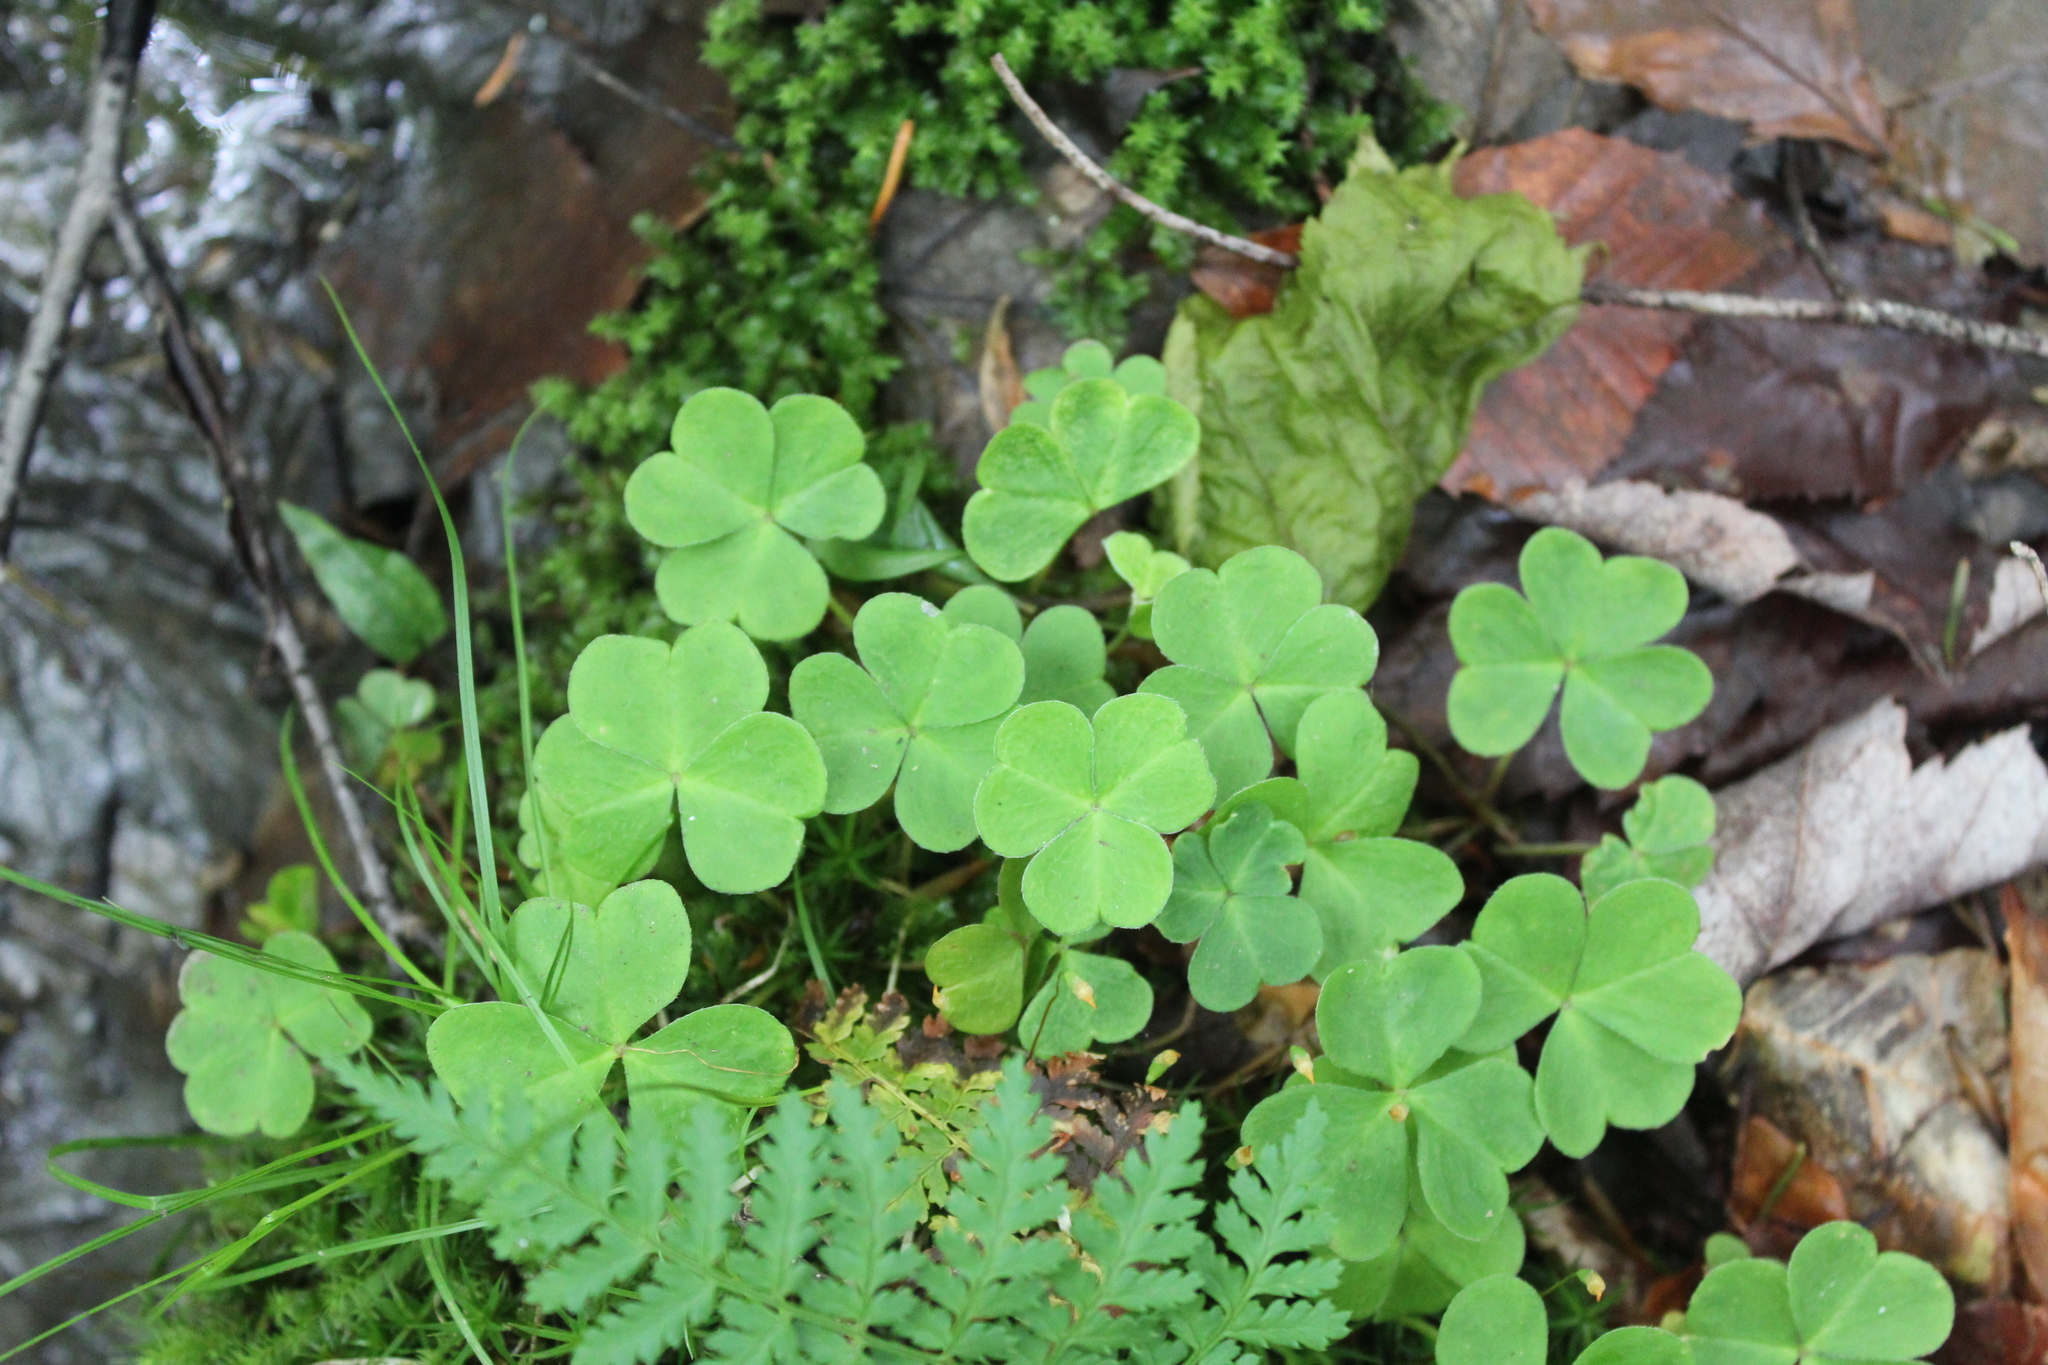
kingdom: Plantae
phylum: Tracheophyta
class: Magnoliopsida
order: Oxalidales
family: Oxalidaceae
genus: Oxalis
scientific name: Oxalis montana
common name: American wood-sorrel
